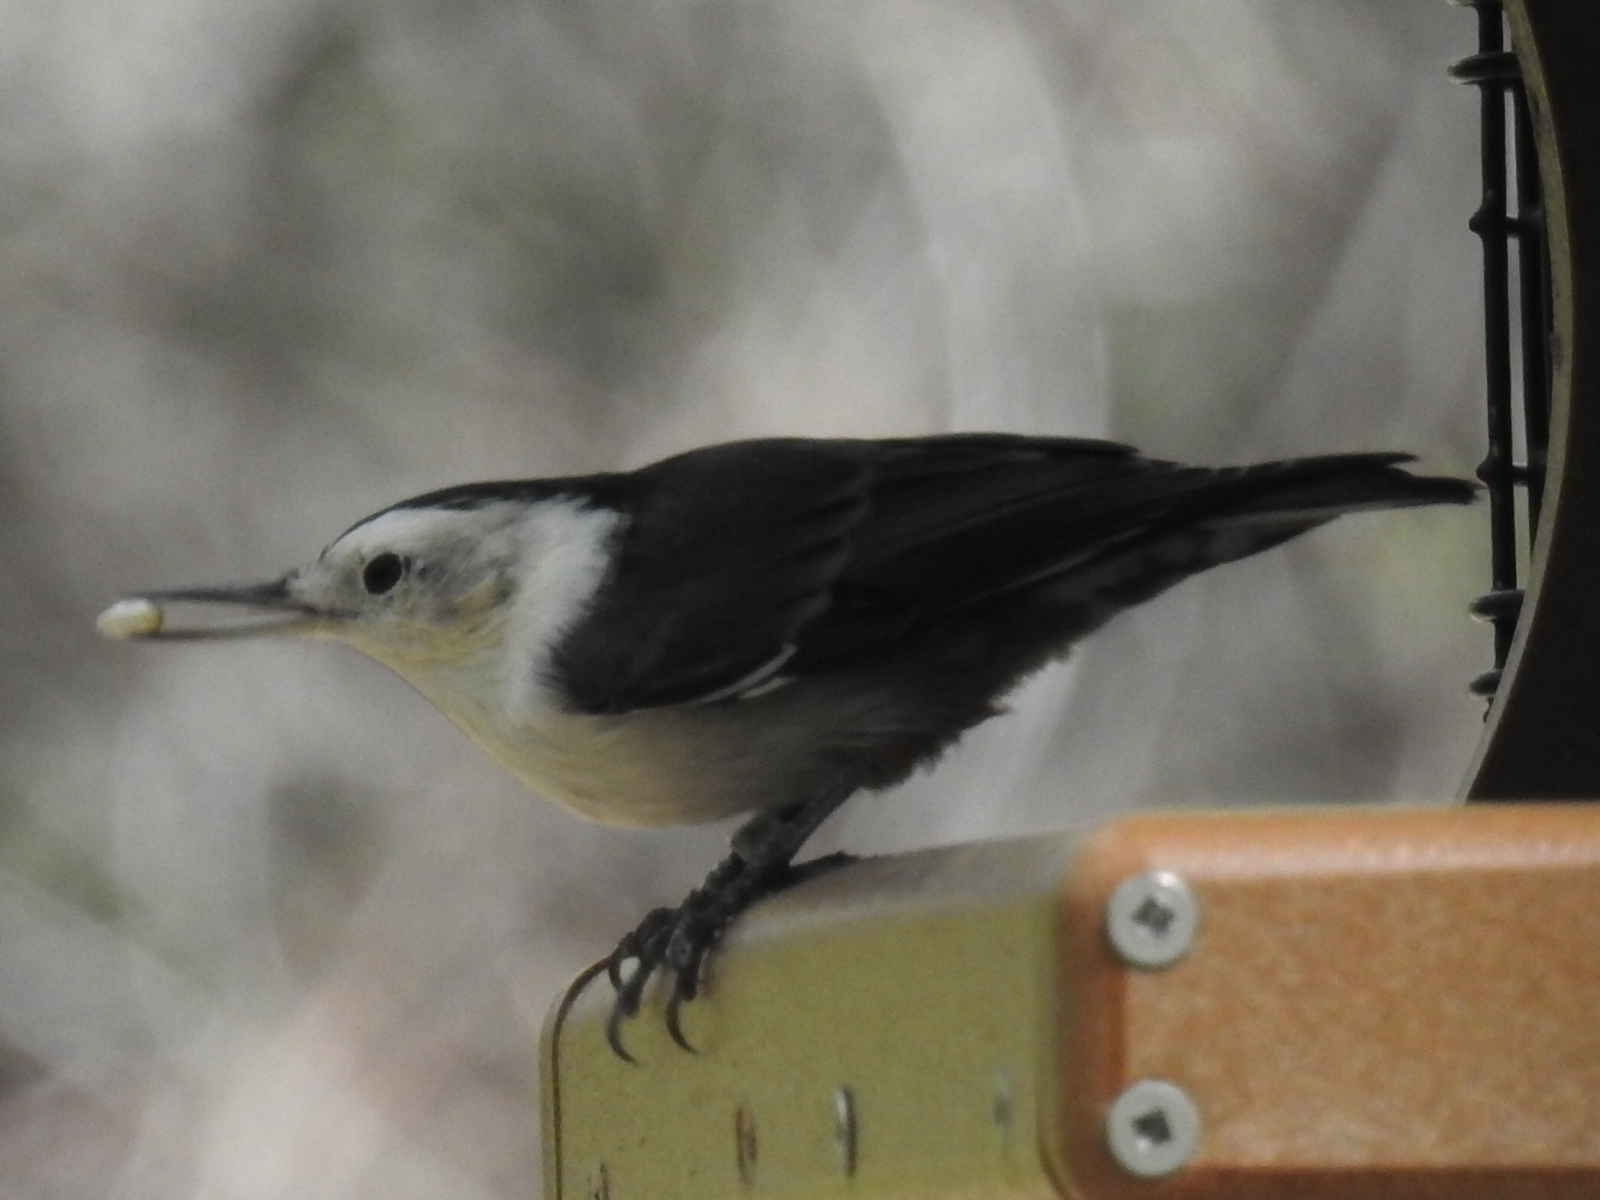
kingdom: Animalia
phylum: Chordata
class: Aves
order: Passeriformes
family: Sittidae
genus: Sitta
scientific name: Sitta carolinensis
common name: White-breasted nuthatch
